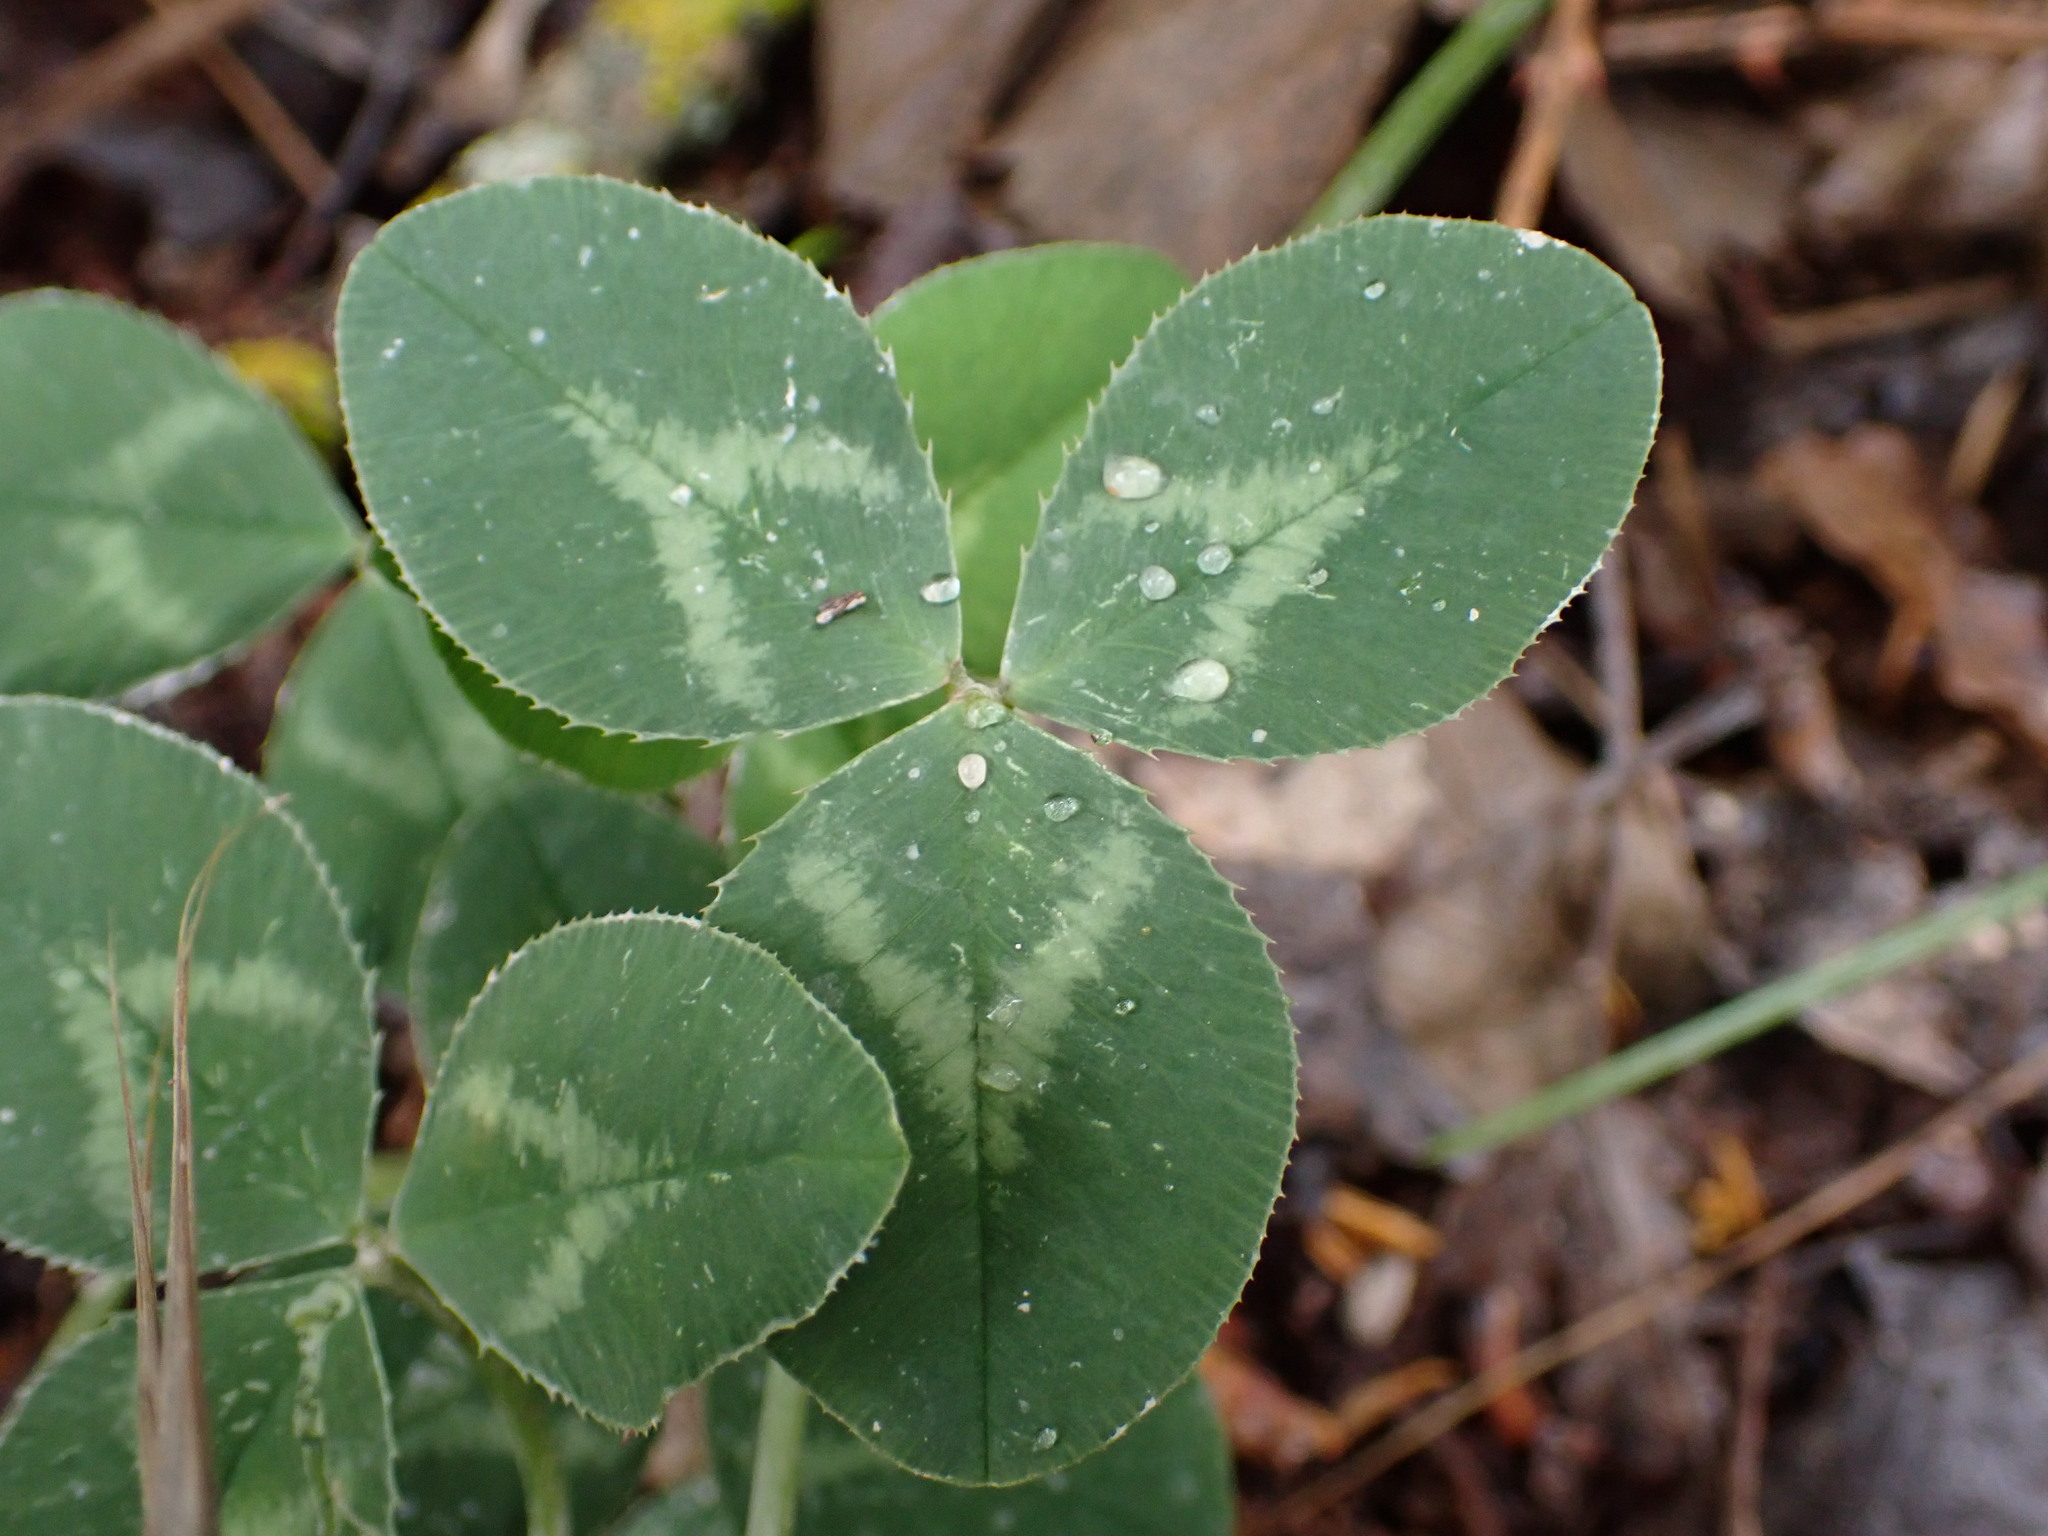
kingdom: Plantae
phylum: Tracheophyta
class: Magnoliopsida
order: Fabales
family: Fabaceae
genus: Trifolium
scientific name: Trifolium repens
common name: White clover
